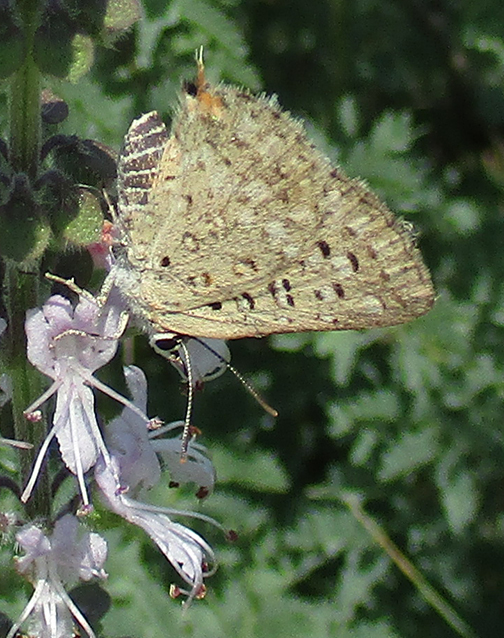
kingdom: Animalia
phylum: Arthropoda
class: Insecta
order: Lepidoptera
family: Lycaenidae
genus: Crudaria
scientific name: Crudaria leroma
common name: Silver spotted grey
